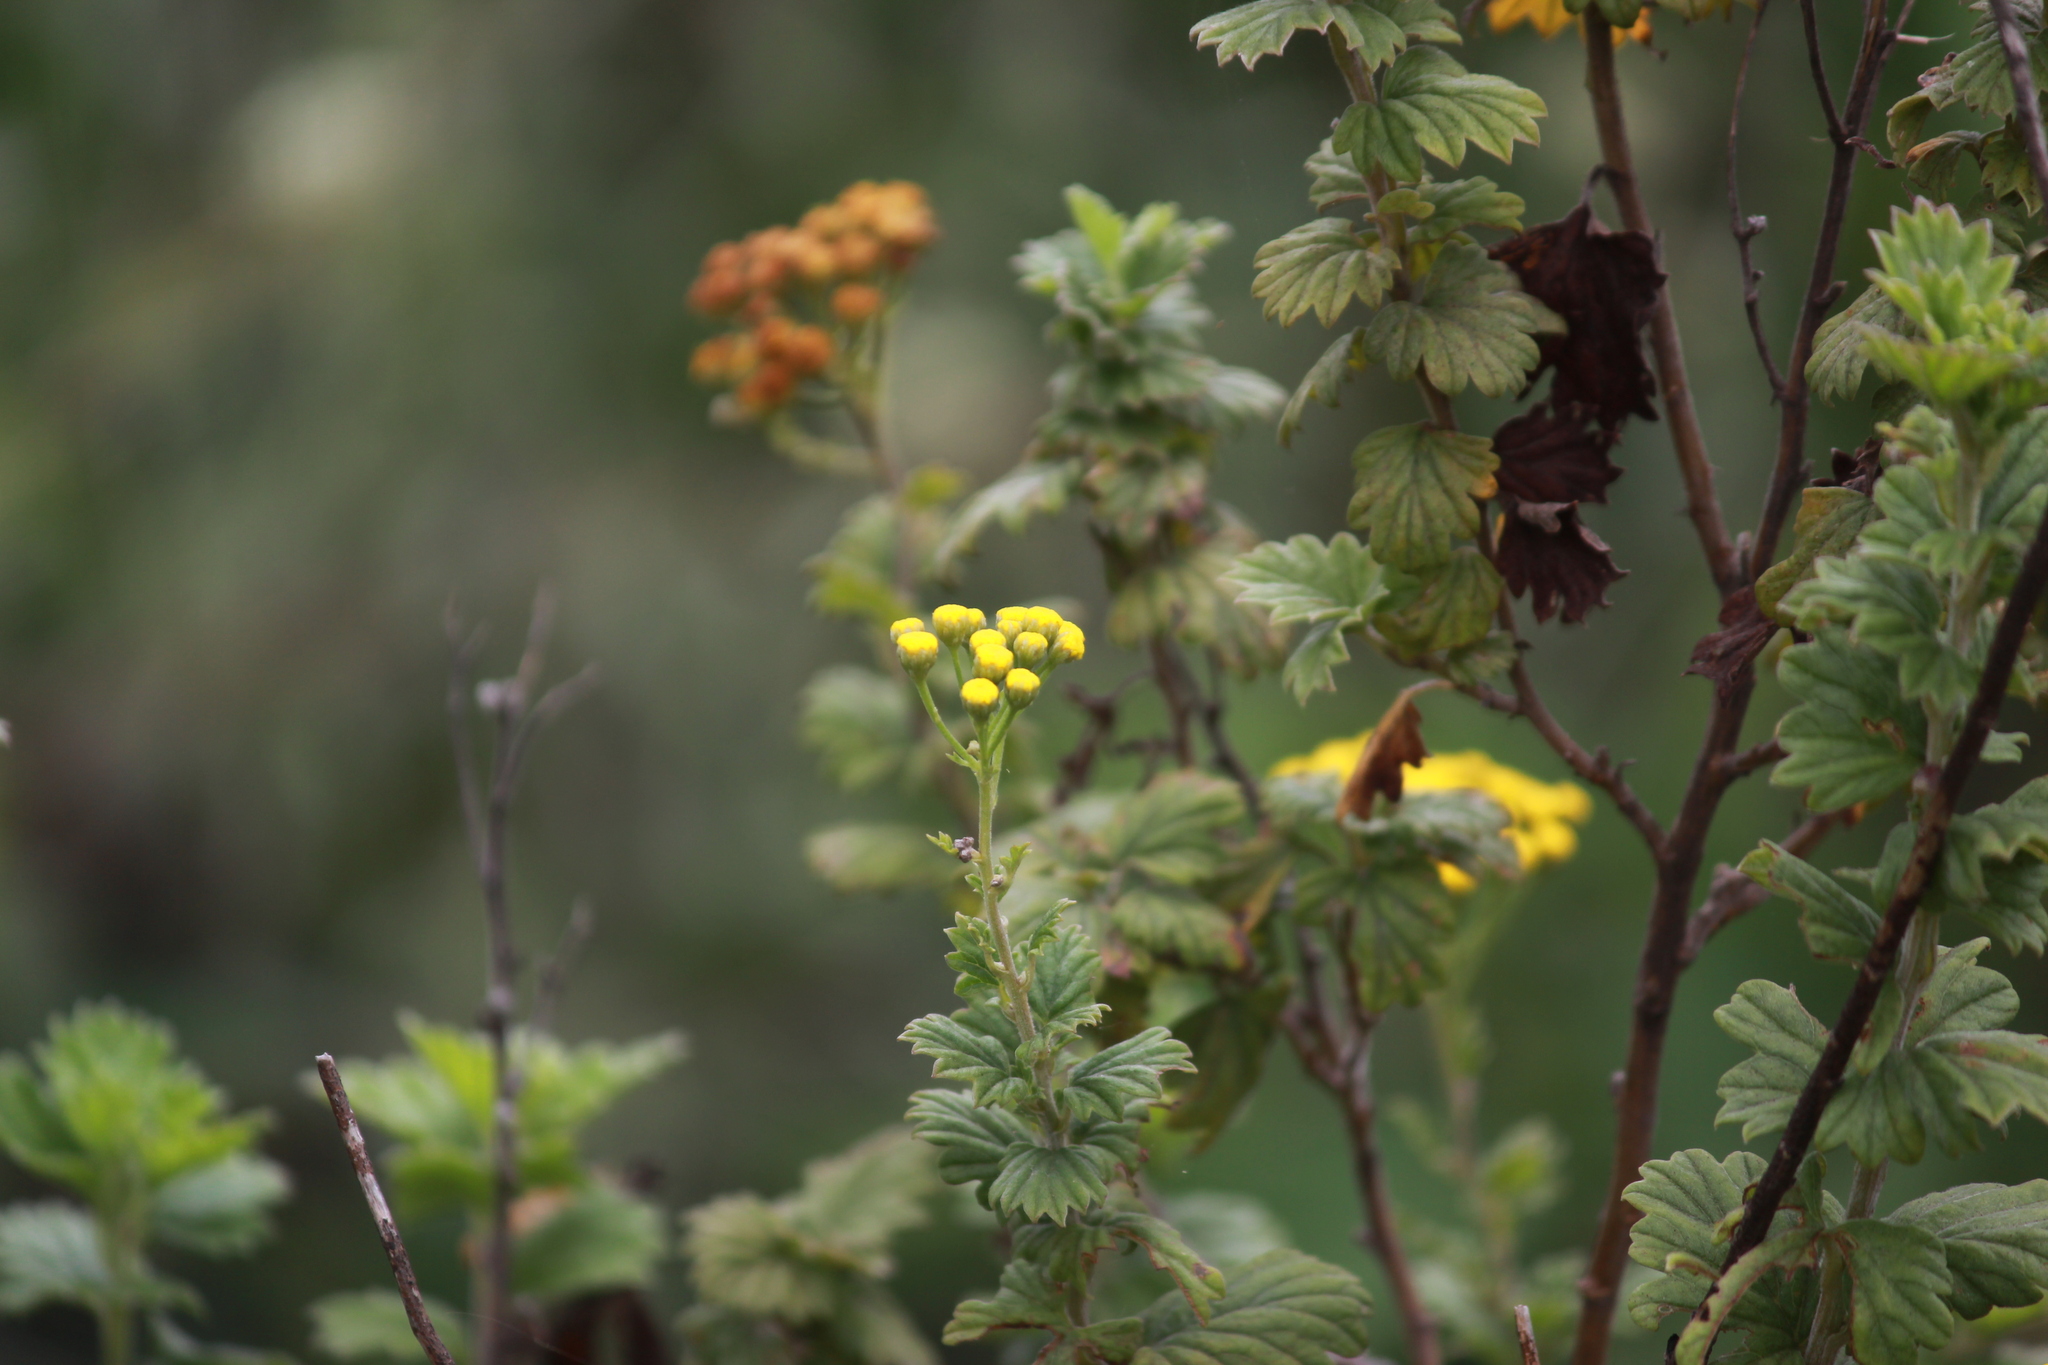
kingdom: Plantae
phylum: Tracheophyta
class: Magnoliopsida
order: Asterales
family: Asteraceae
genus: Schistostephium
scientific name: Schistostephium rotundifolium
